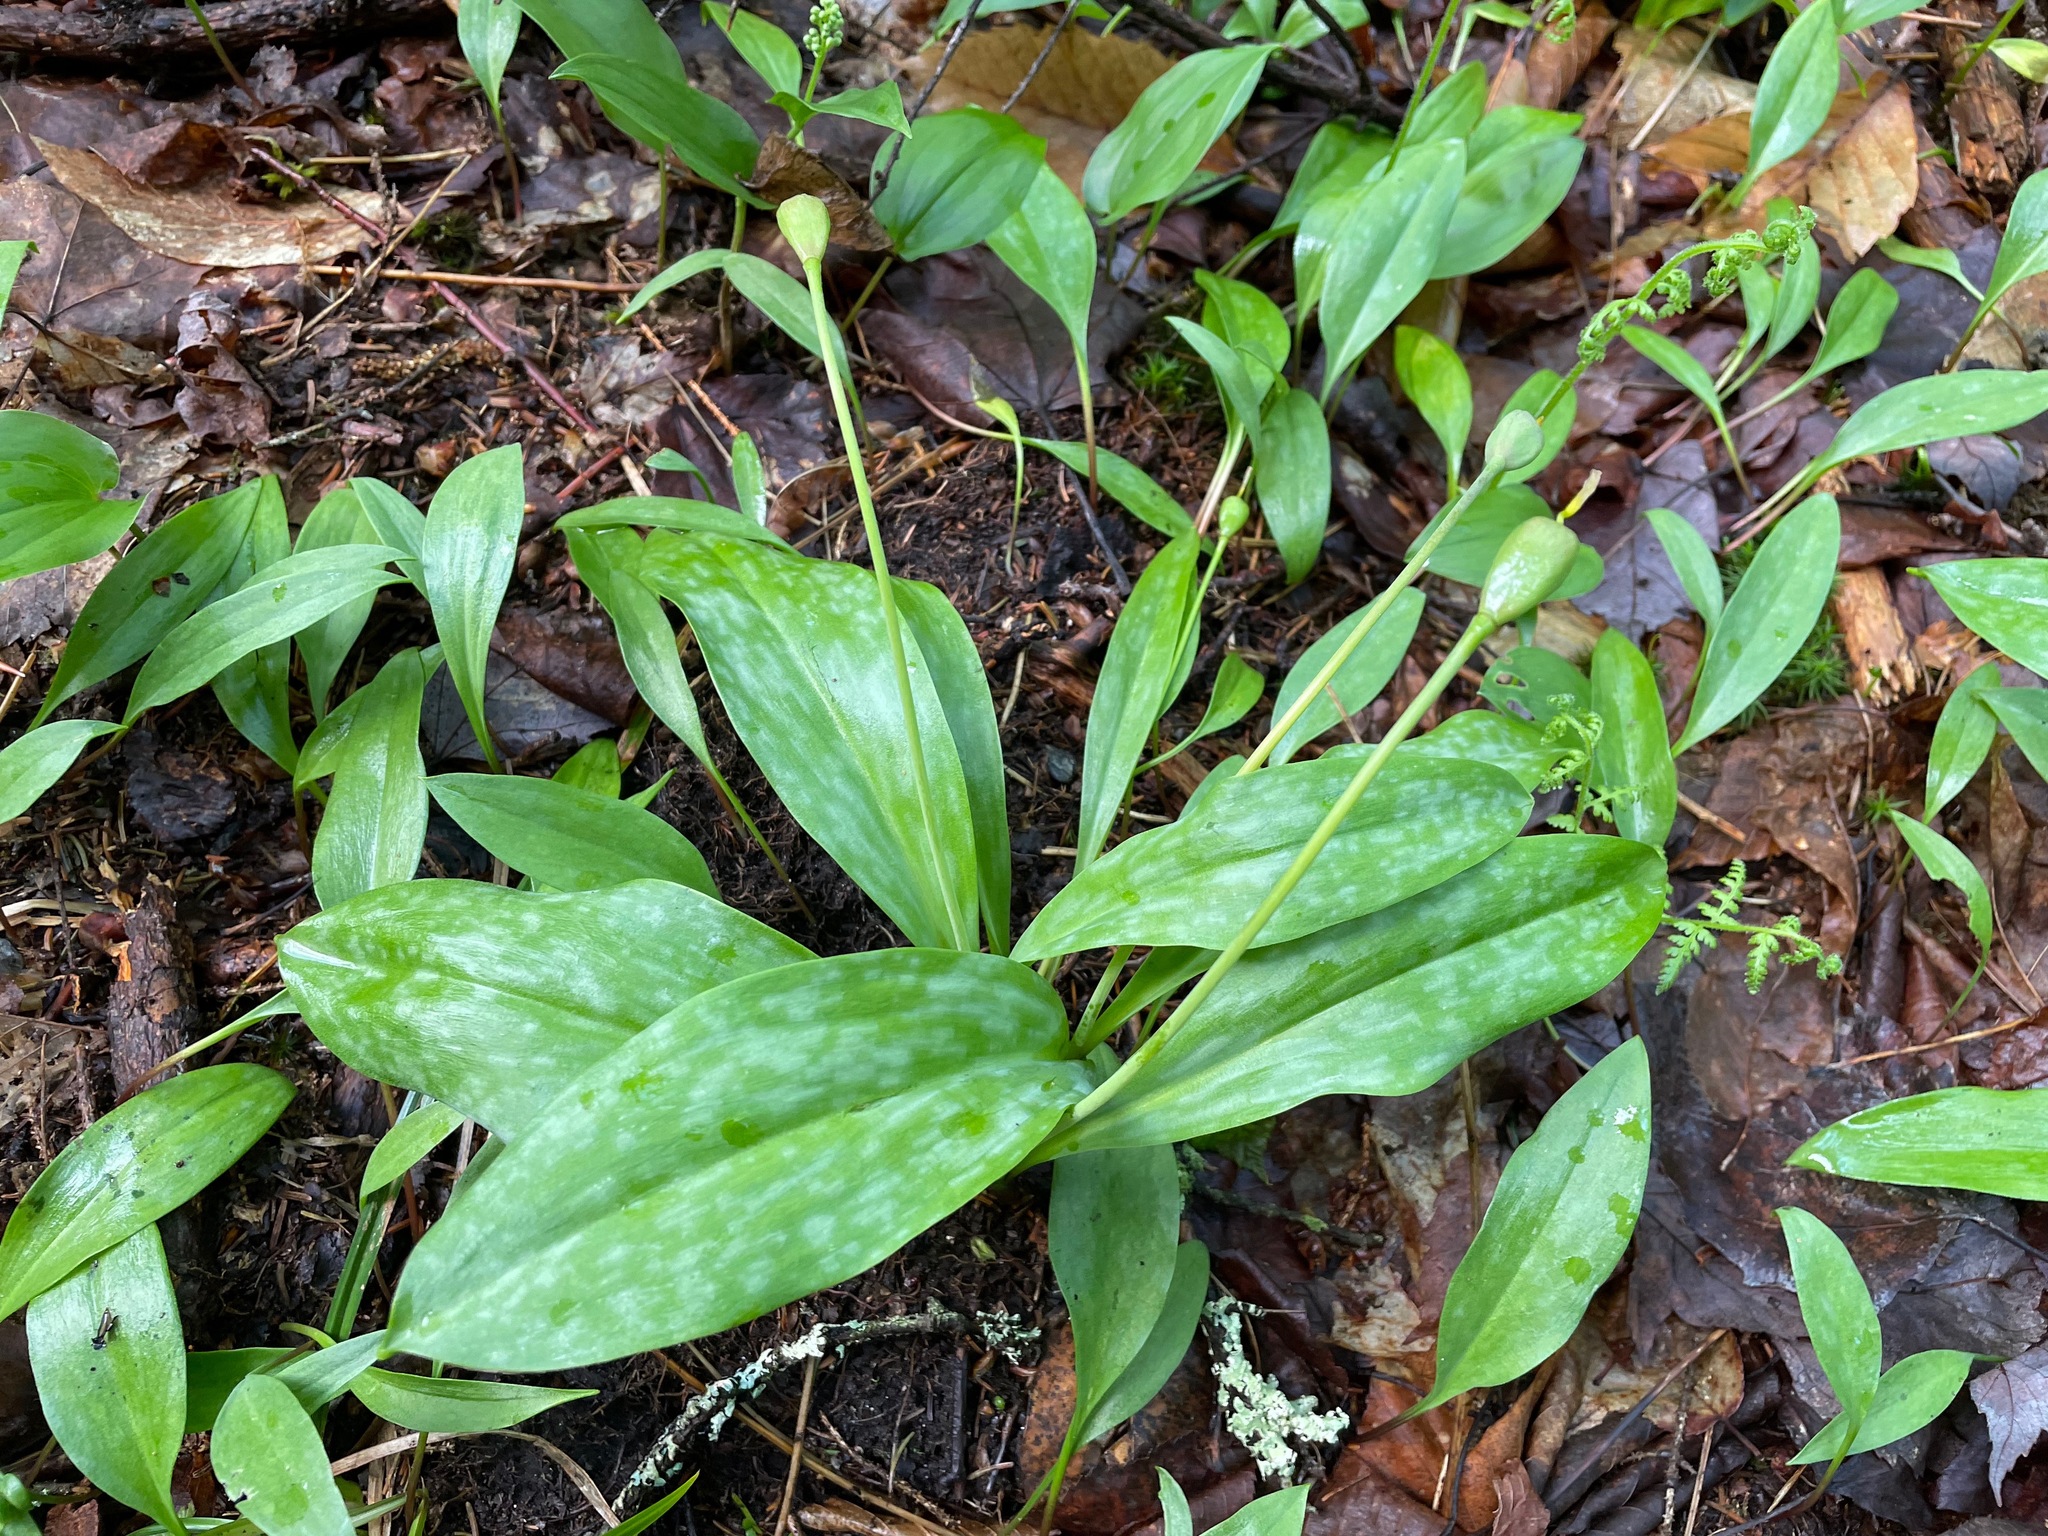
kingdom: Plantae
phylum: Tracheophyta
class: Liliopsida
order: Liliales
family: Liliaceae
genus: Erythronium
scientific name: Erythronium americanum
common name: Yellow adder's-tongue
